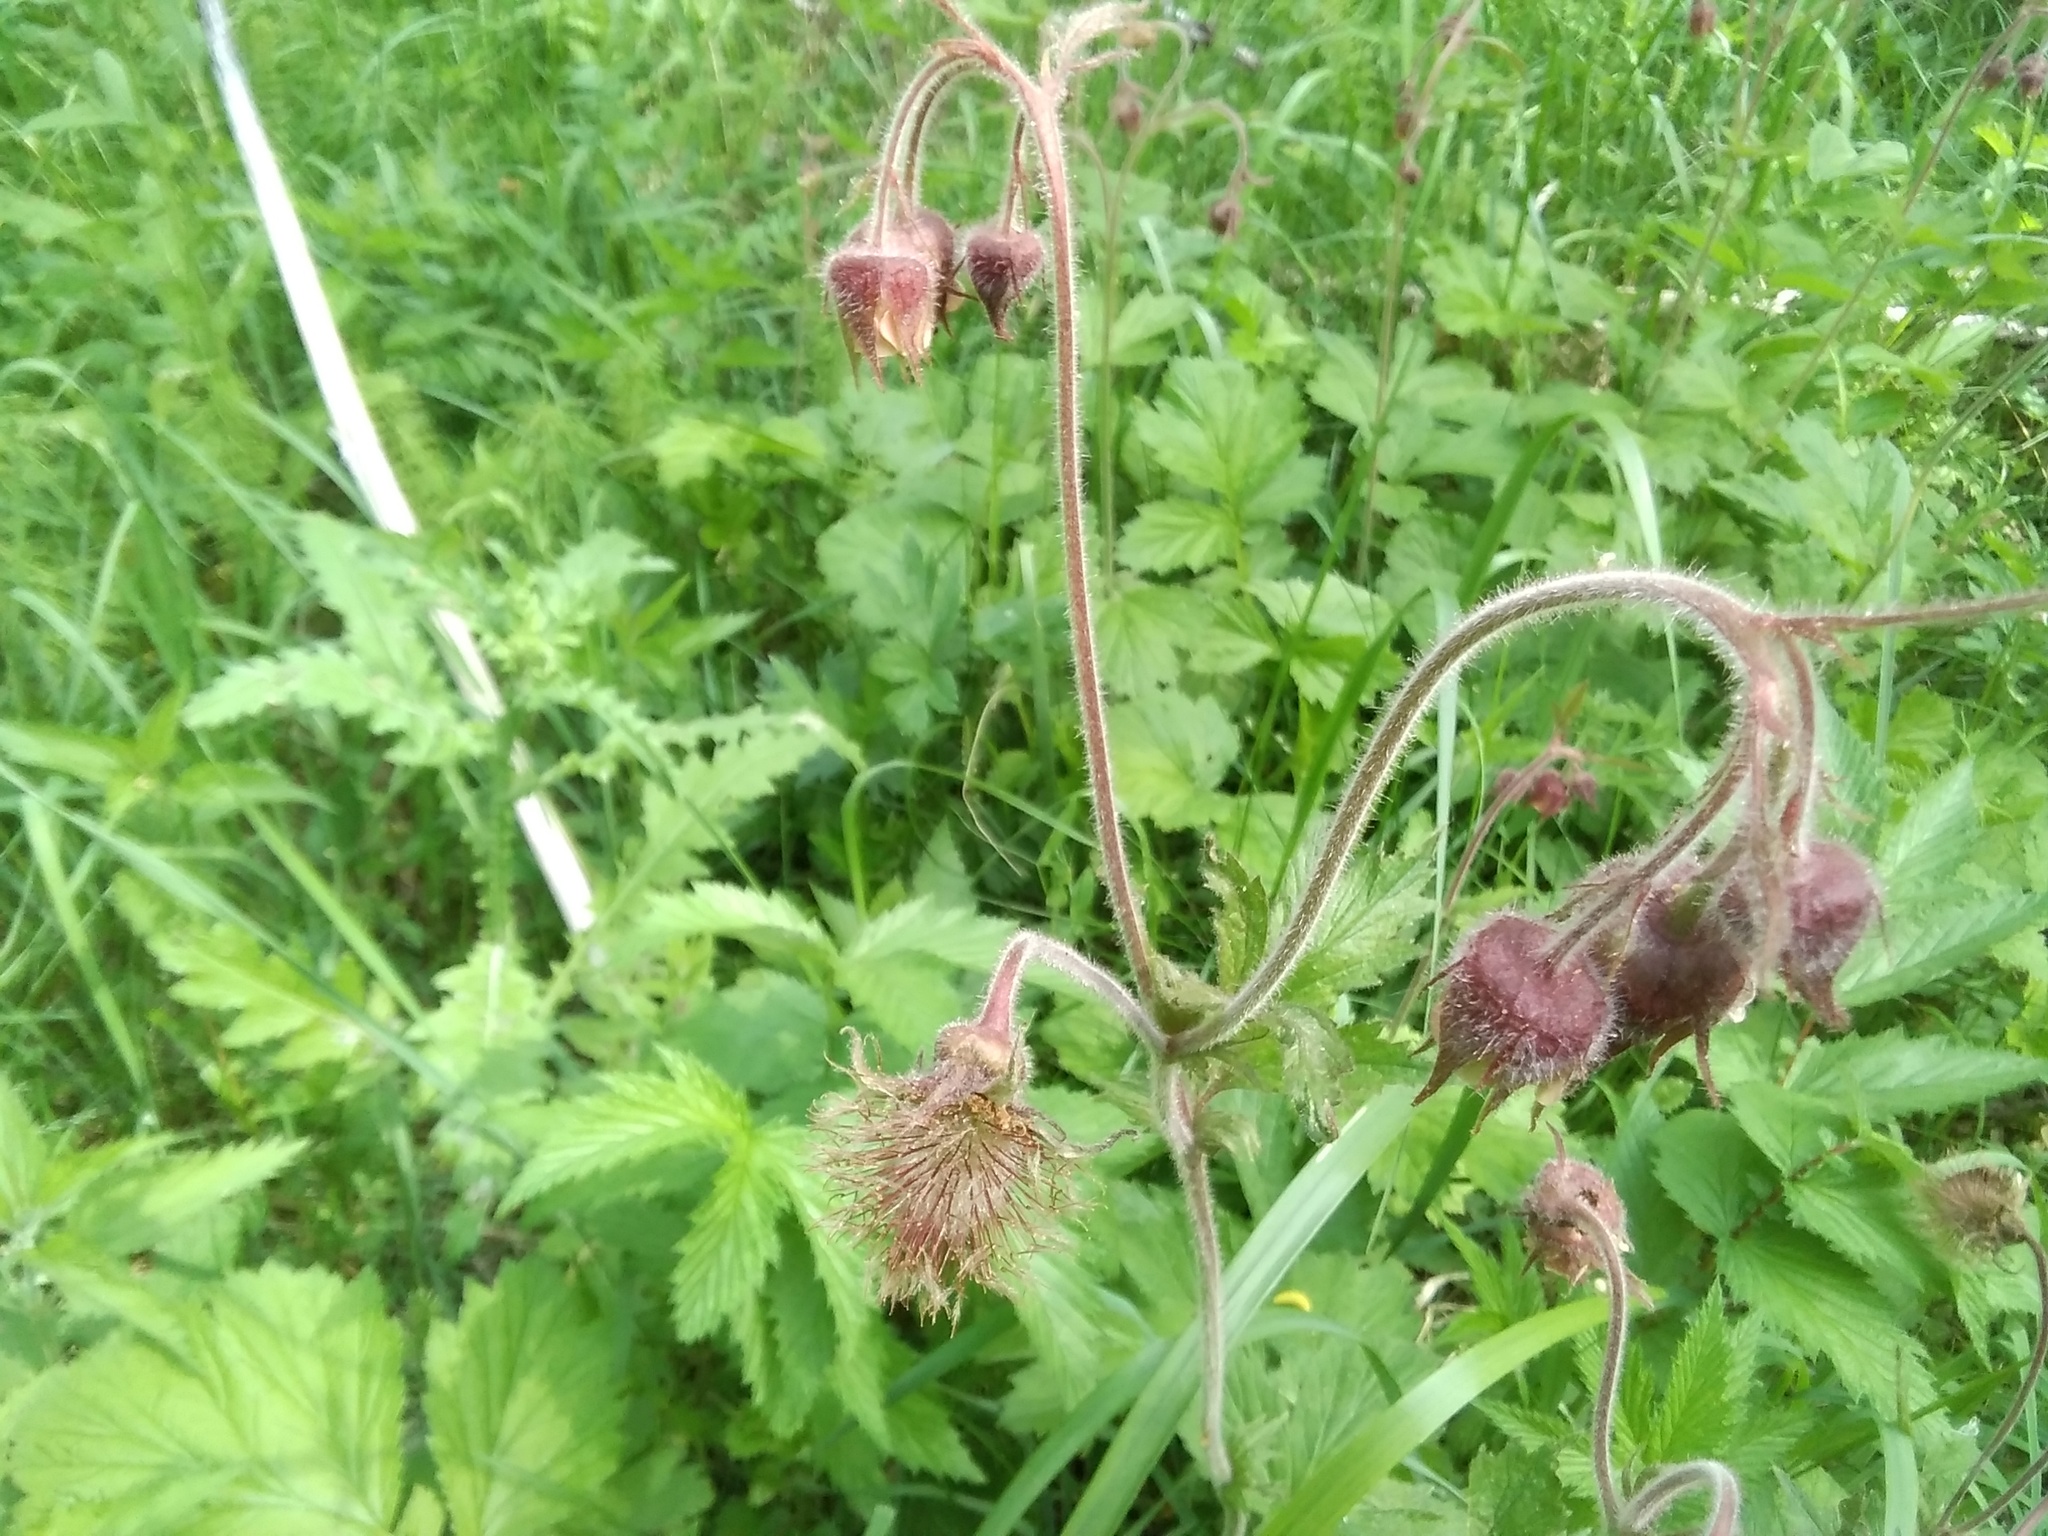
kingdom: Plantae
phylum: Tracheophyta
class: Magnoliopsida
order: Rosales
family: Rosaceae
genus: Geum
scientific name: Geum rivale
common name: Water avens
